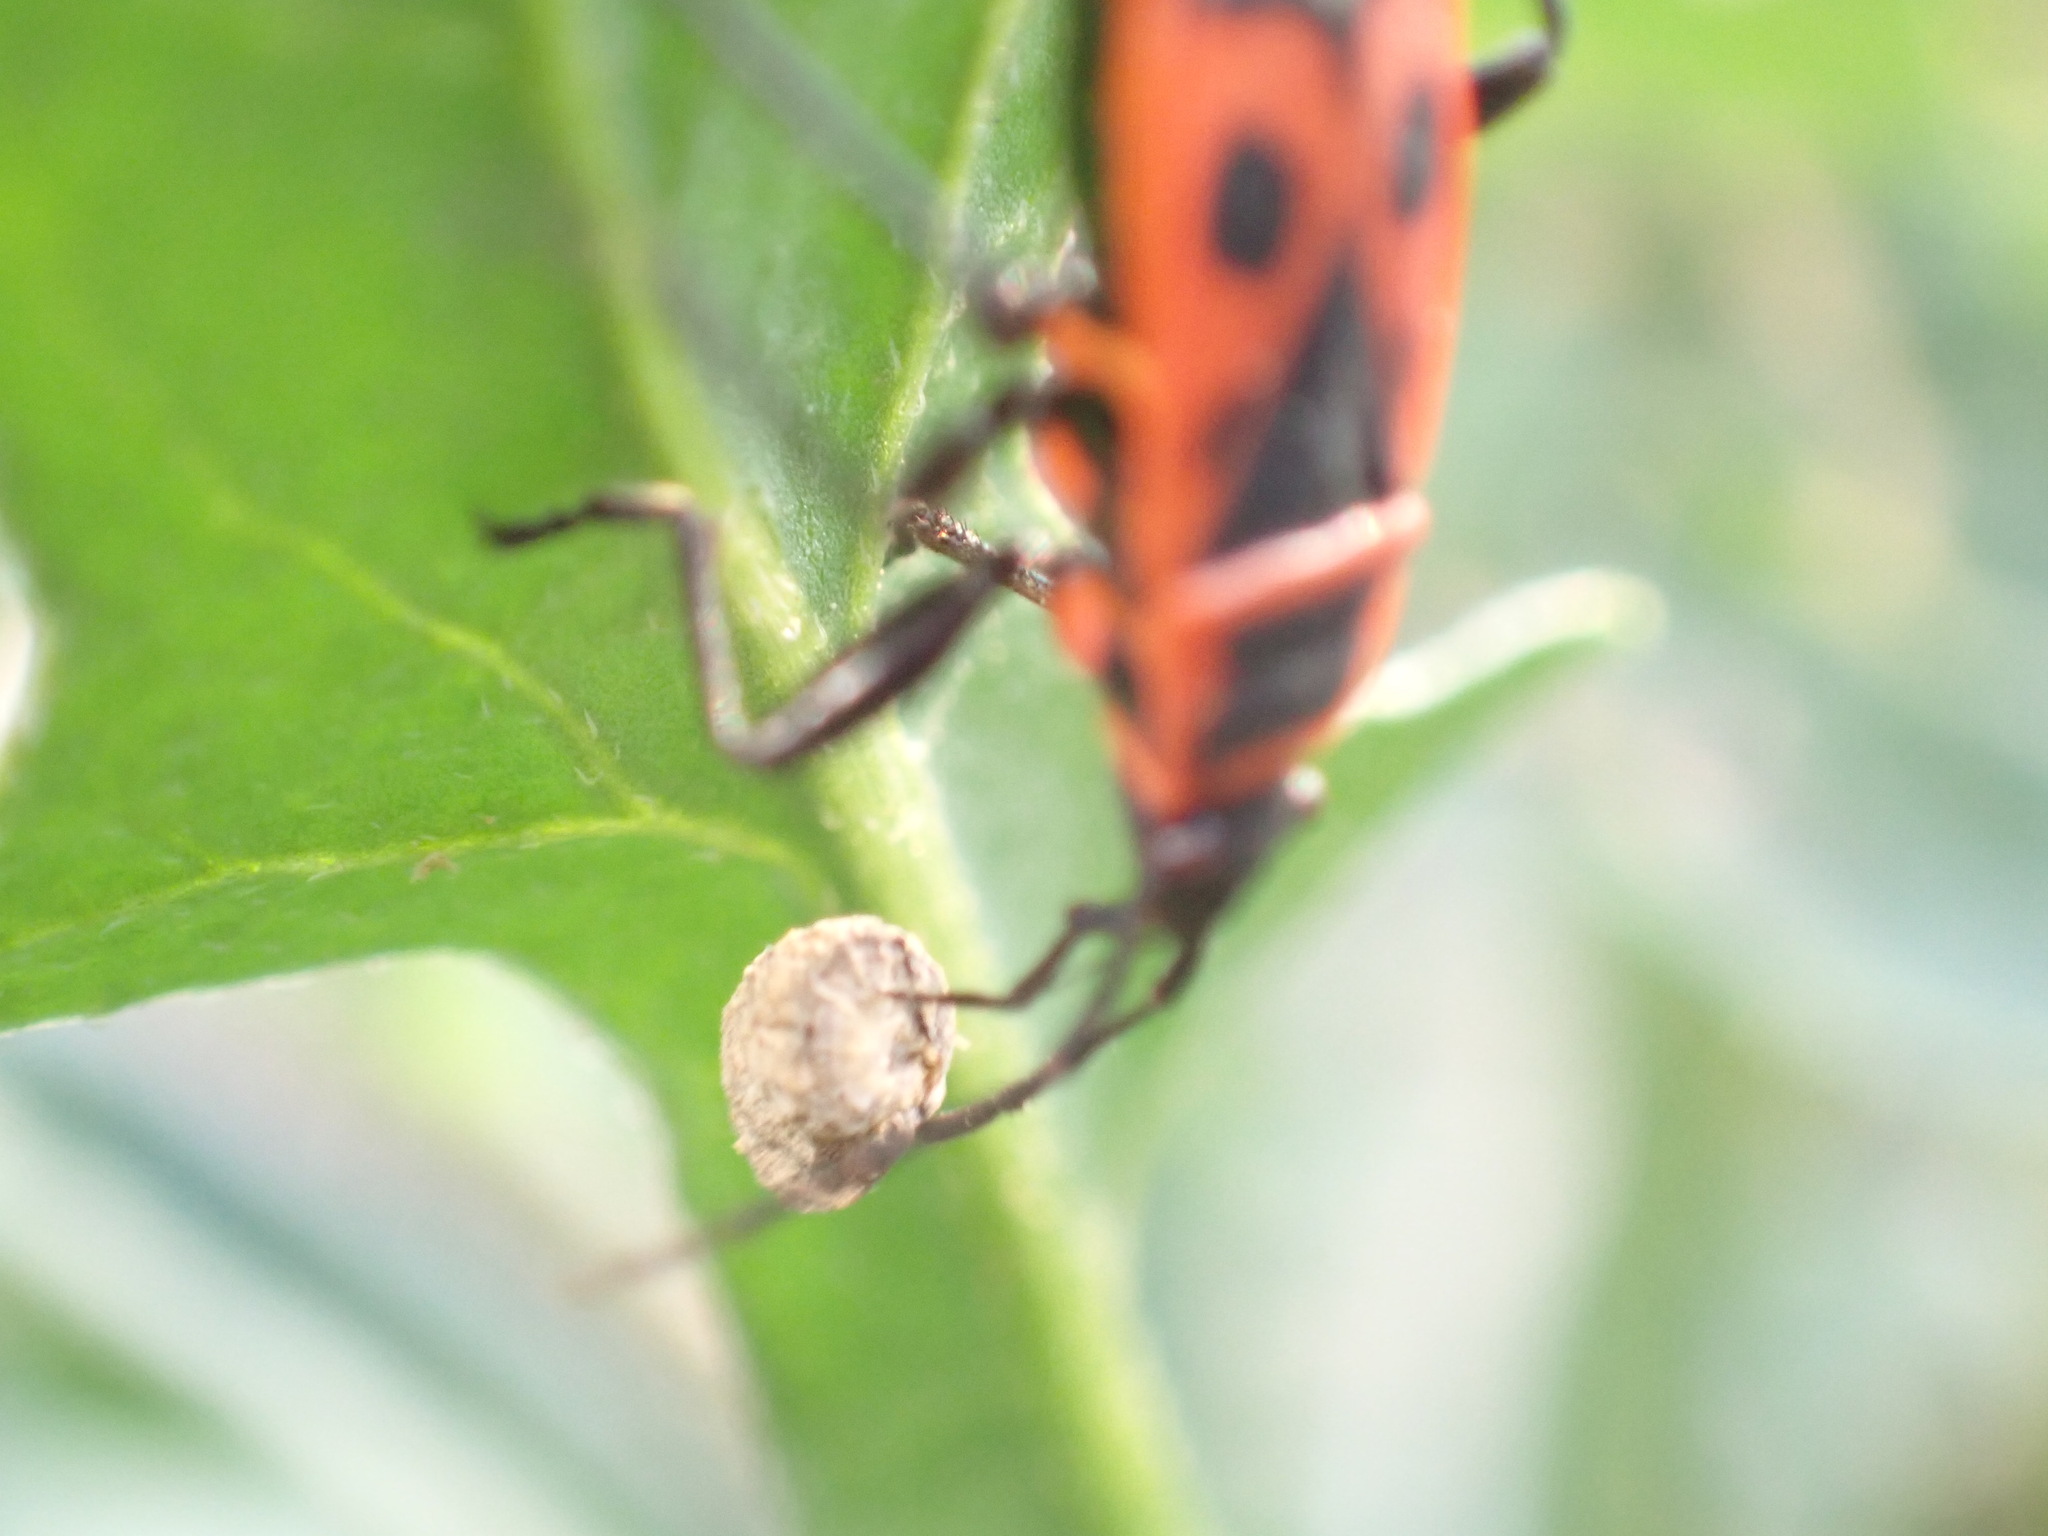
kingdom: Animalia
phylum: Arthropoda
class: Insecta
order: Hemiptera
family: Pyrrhocoridae
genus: Pyrrhocoris
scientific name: Pyrrhocoris apterus
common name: Firebug
